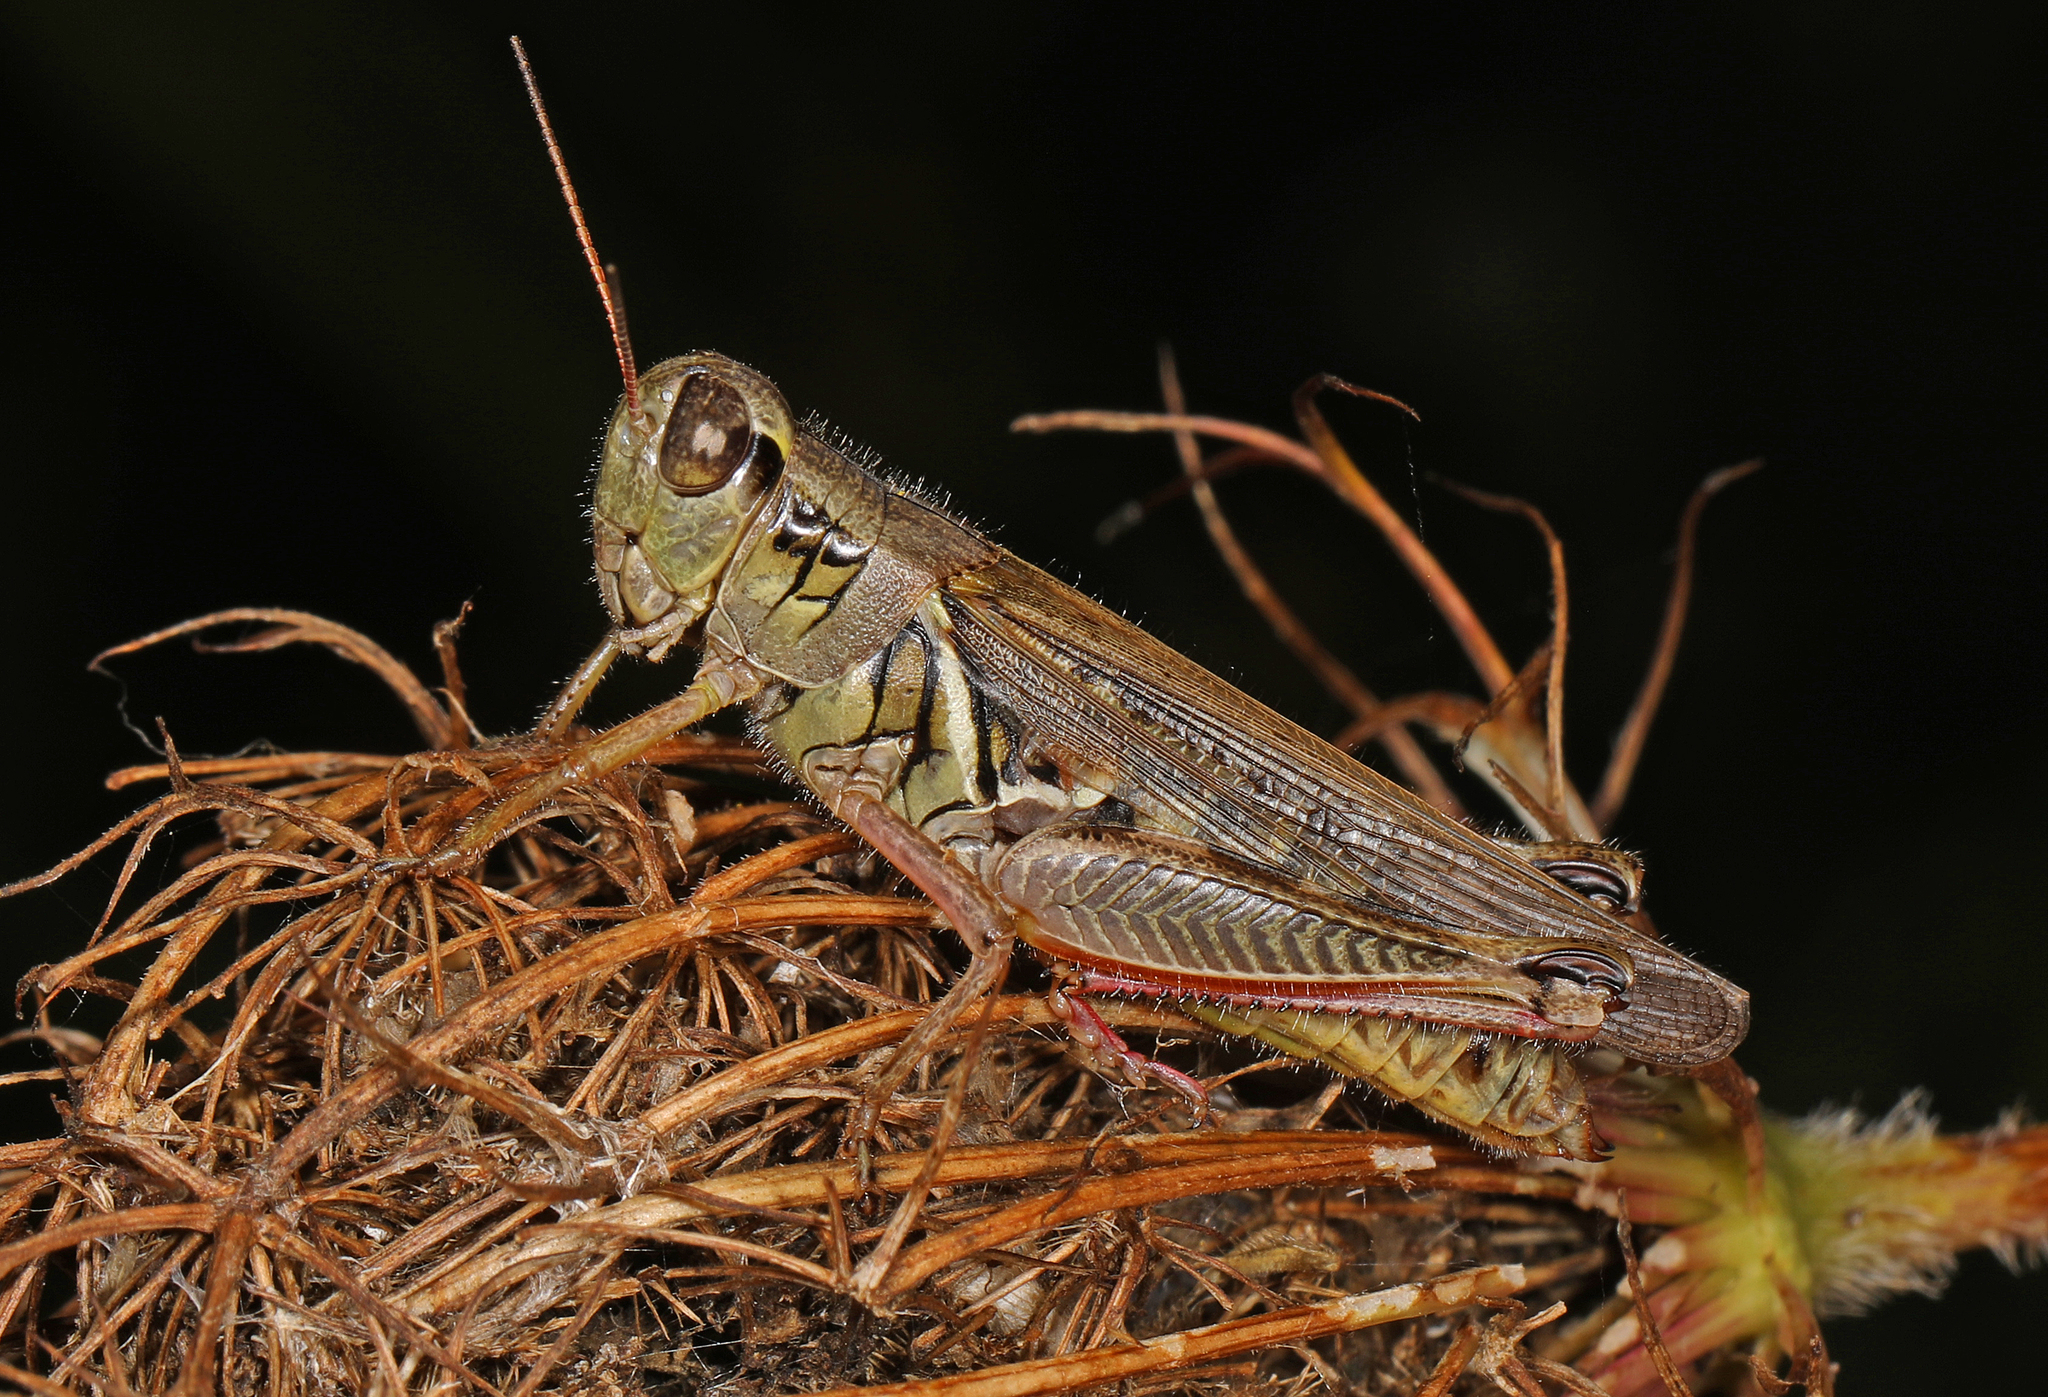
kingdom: Animalia
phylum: Arthropoda
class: Insecta
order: Orthoptera
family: Acrididae
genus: Melanoplus
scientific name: Melanoplus femurrubrum
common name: Red-legged grasshopper
